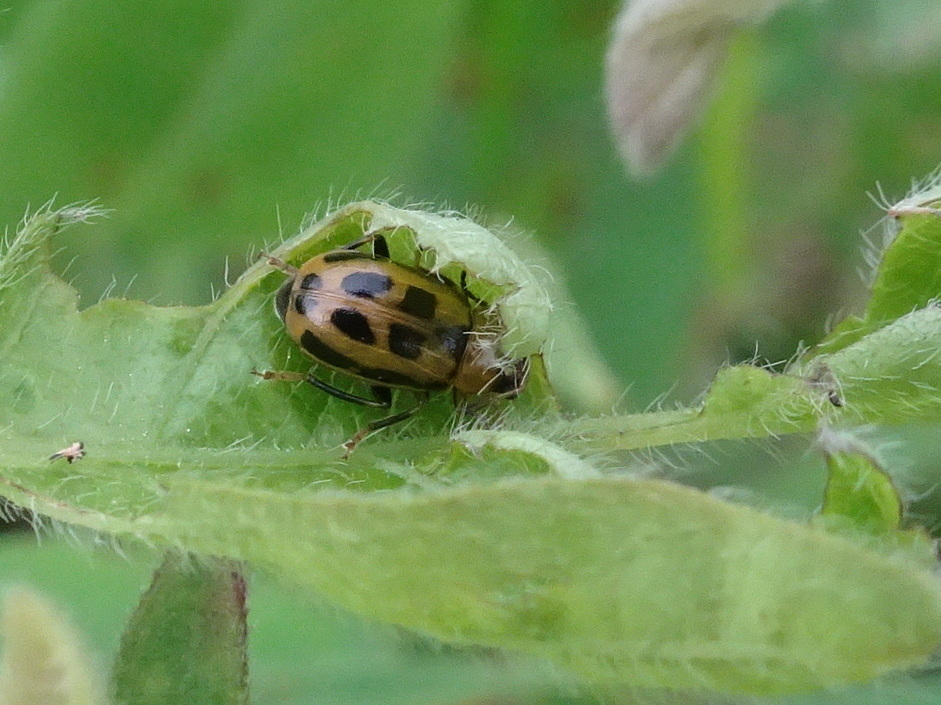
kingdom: Animalia
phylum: Arthropoda
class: Insecta
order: Coleoptera
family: Chrysomelidae
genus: Cerotoma
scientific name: Cerotoma trifurcata
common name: Bean leaf beetle
